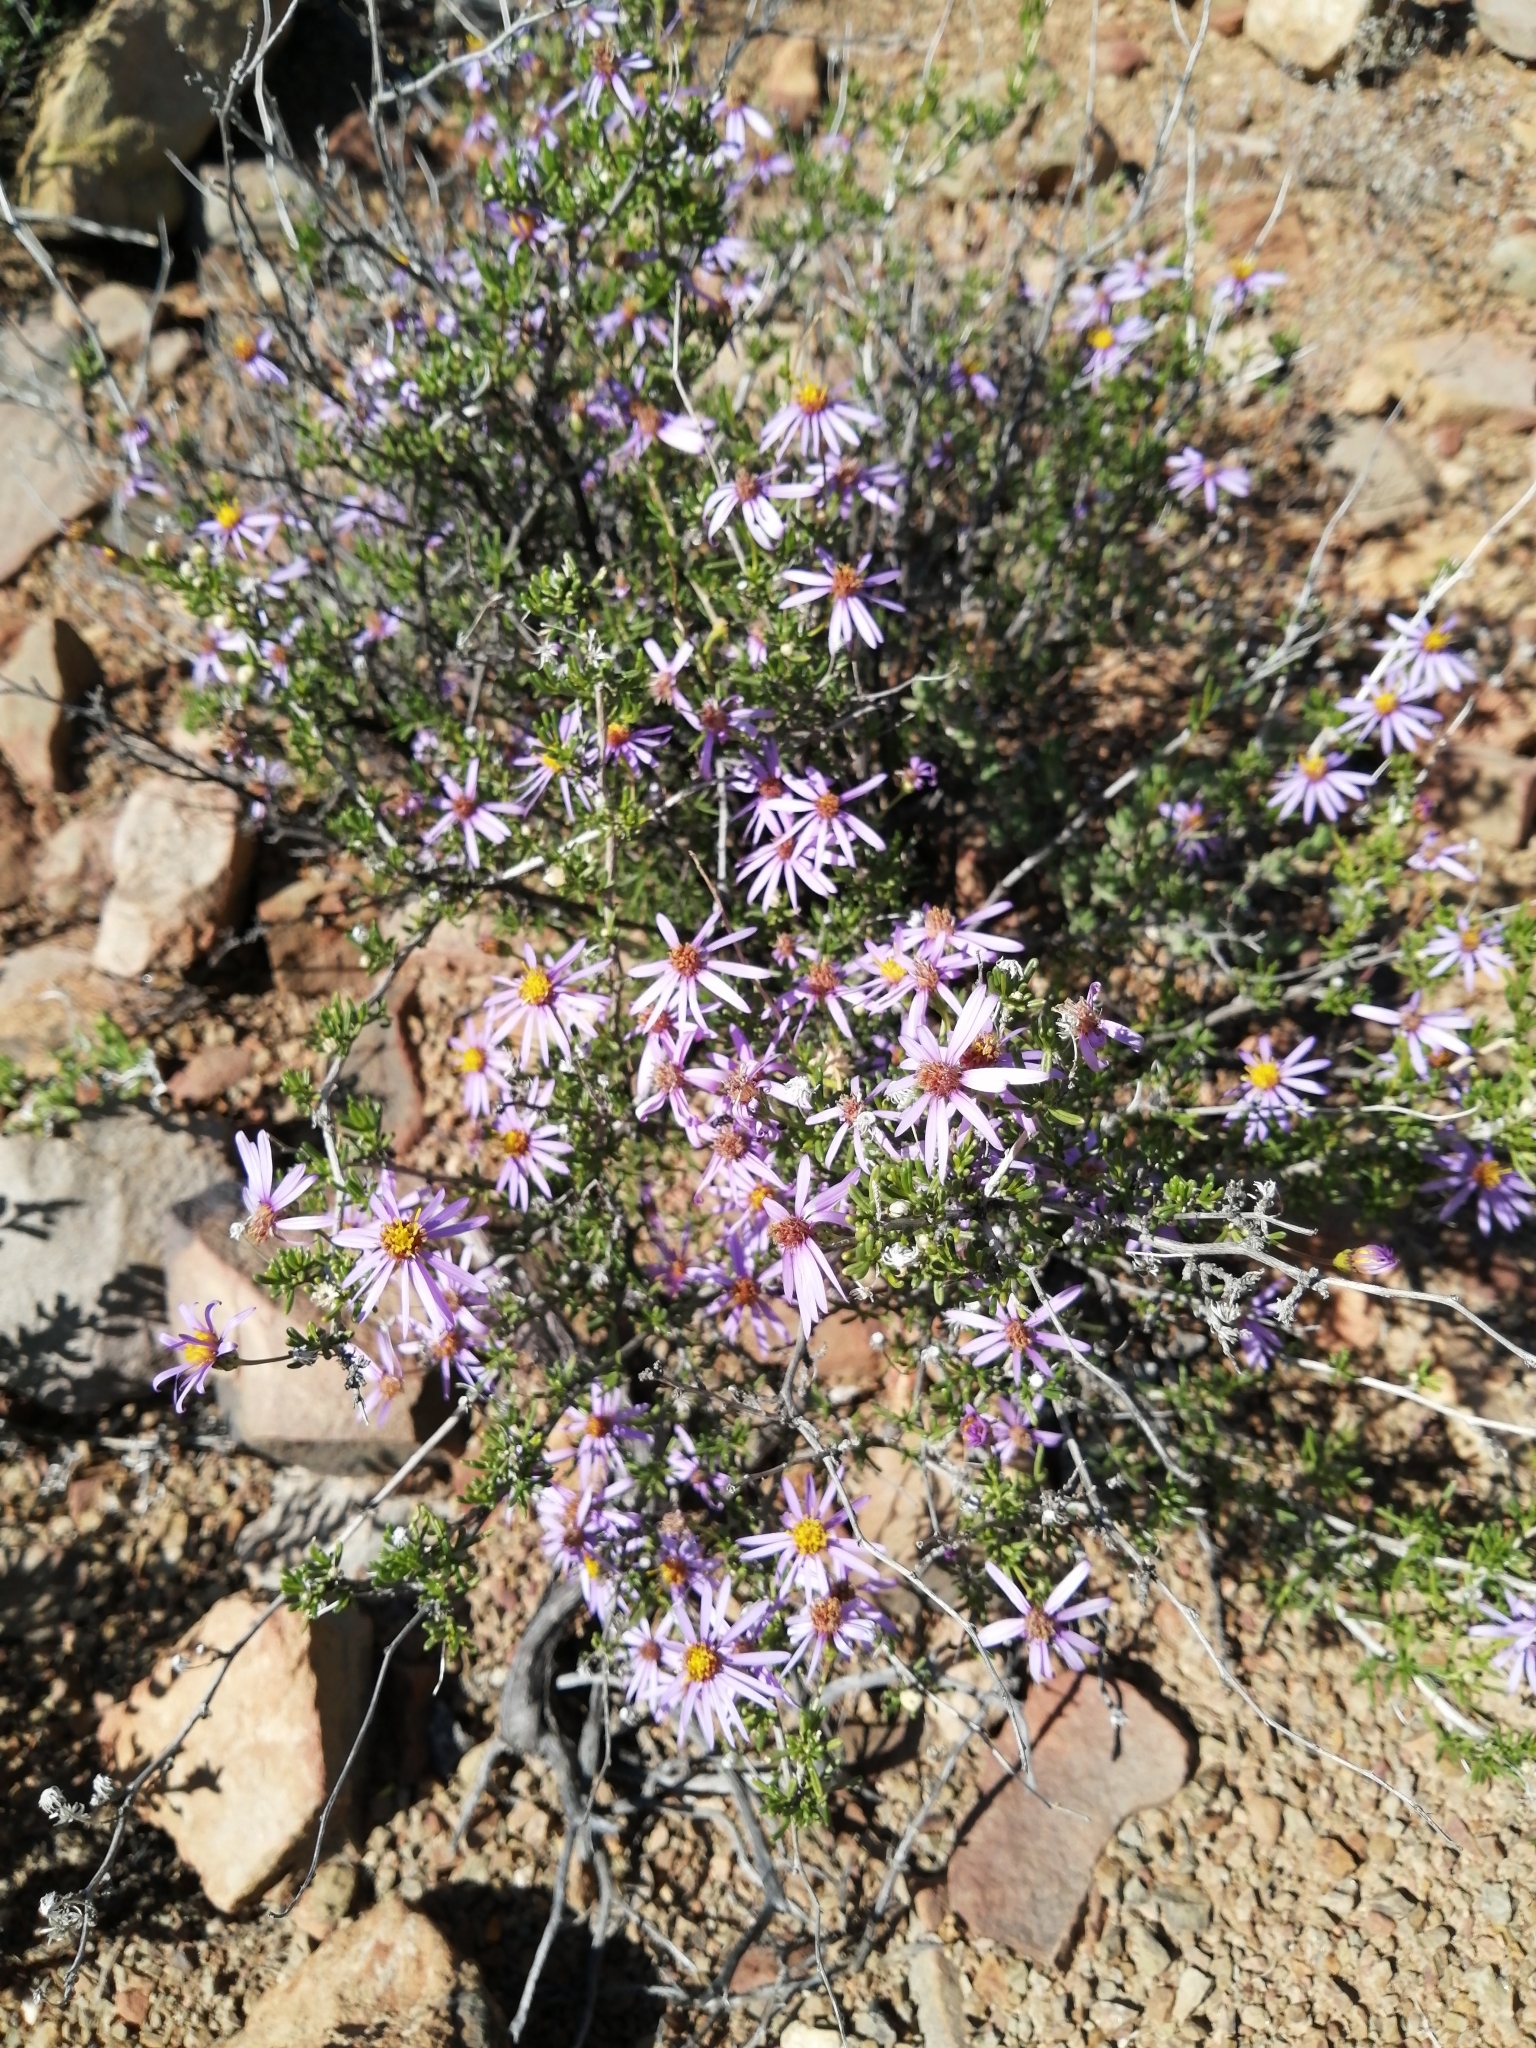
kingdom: Plantae
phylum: Tracheophyta
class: Magnoliopsida
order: Asterales
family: Asteraceae
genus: Felicia
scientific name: Felicia filifolia
